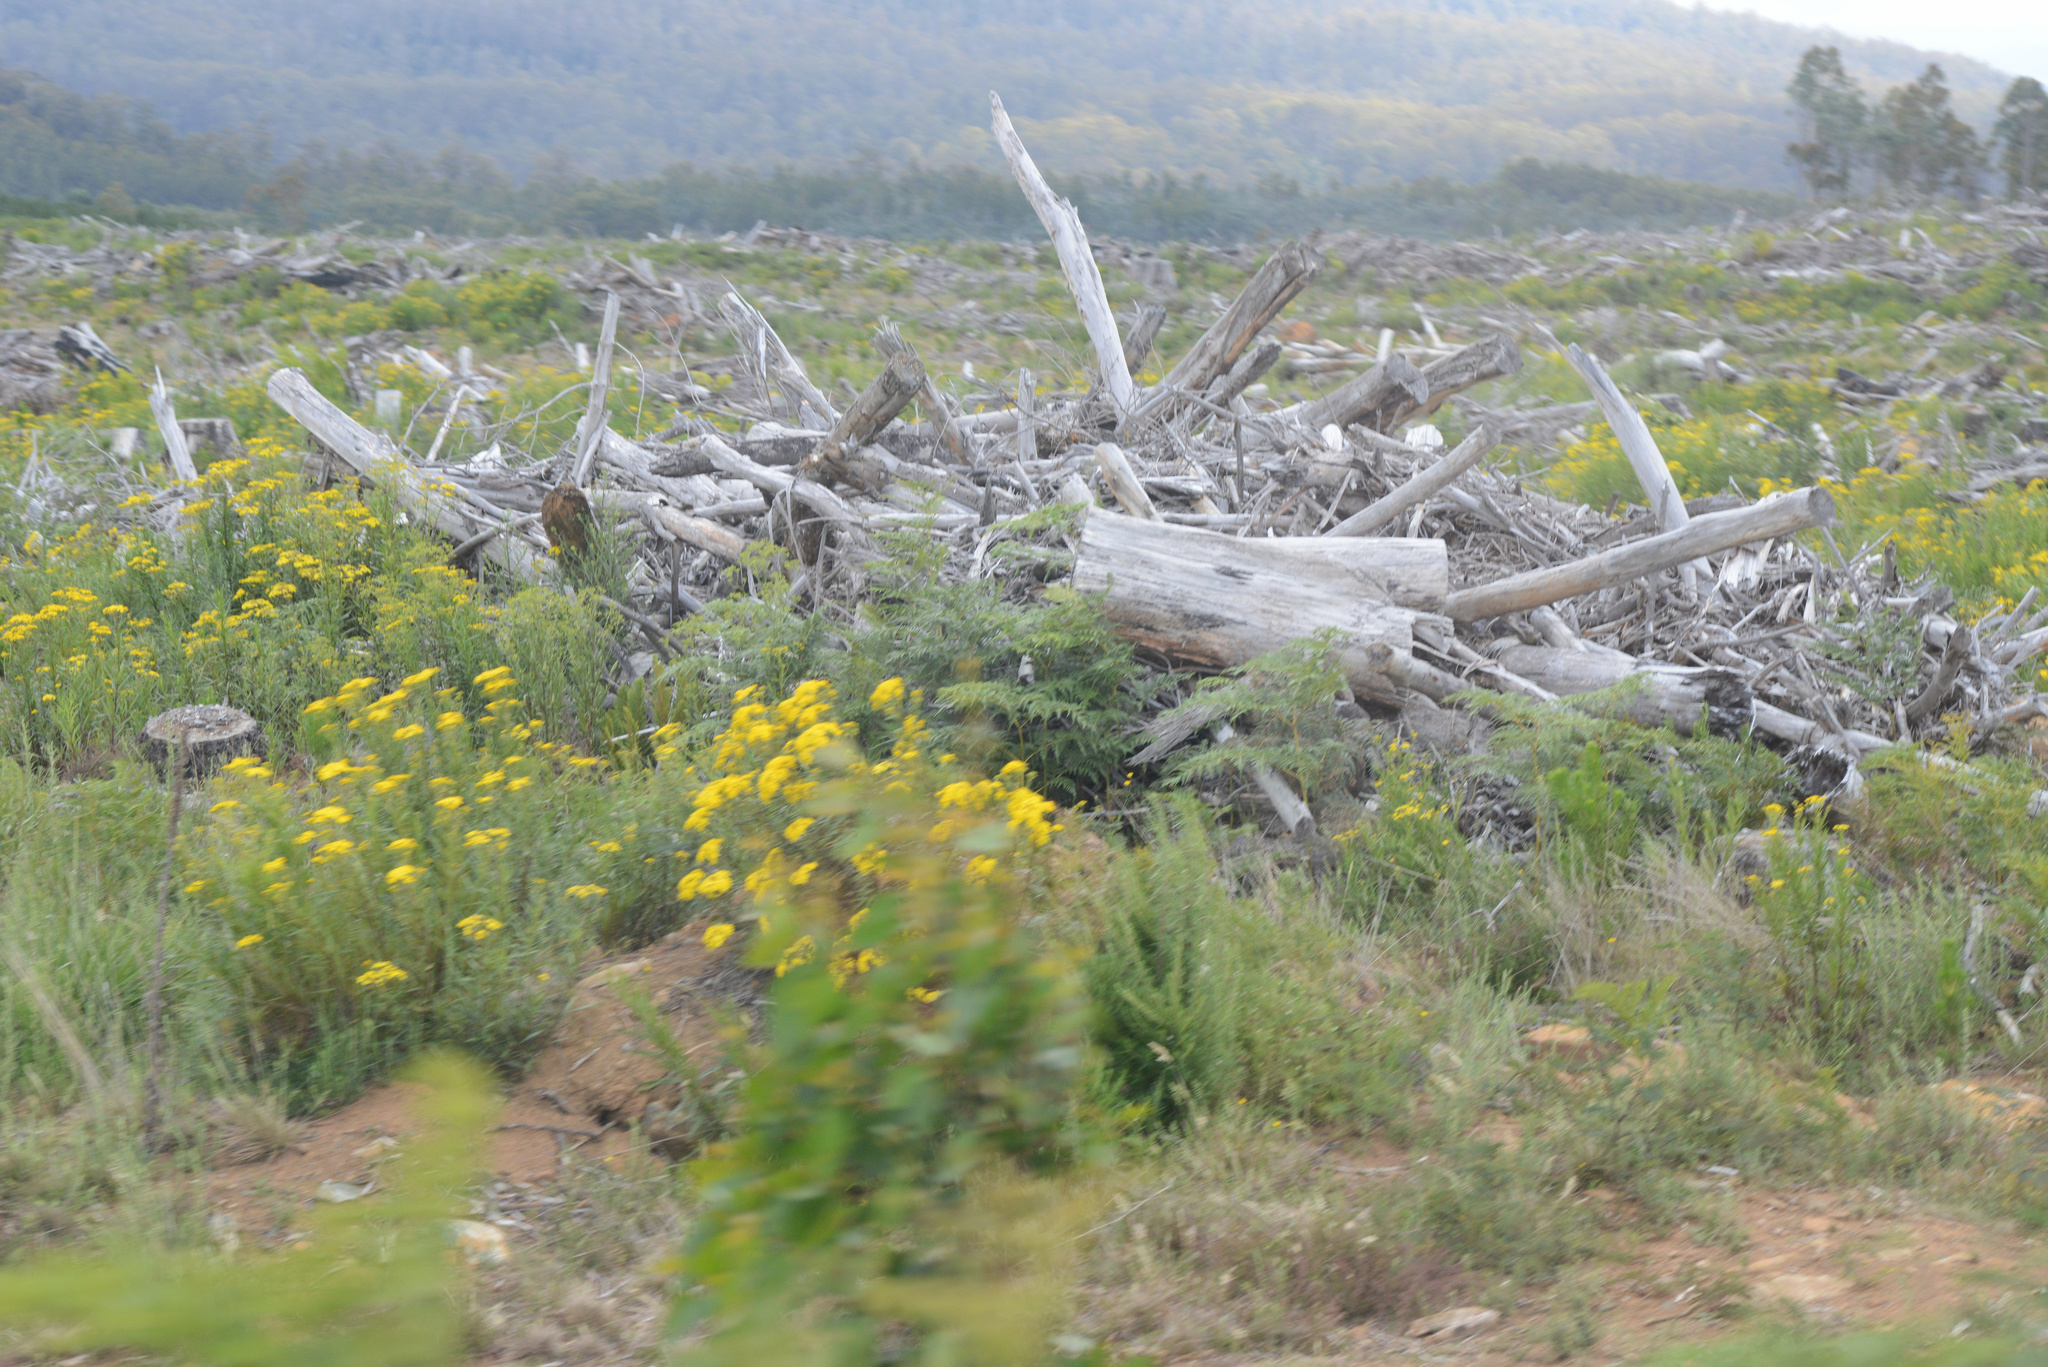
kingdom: Plantae
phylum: Tracheophyta
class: Magnoliopsida
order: Asterales
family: Asteraceae
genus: Senecio
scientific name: Senecio linearifolius
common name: Fireweed groundsel
